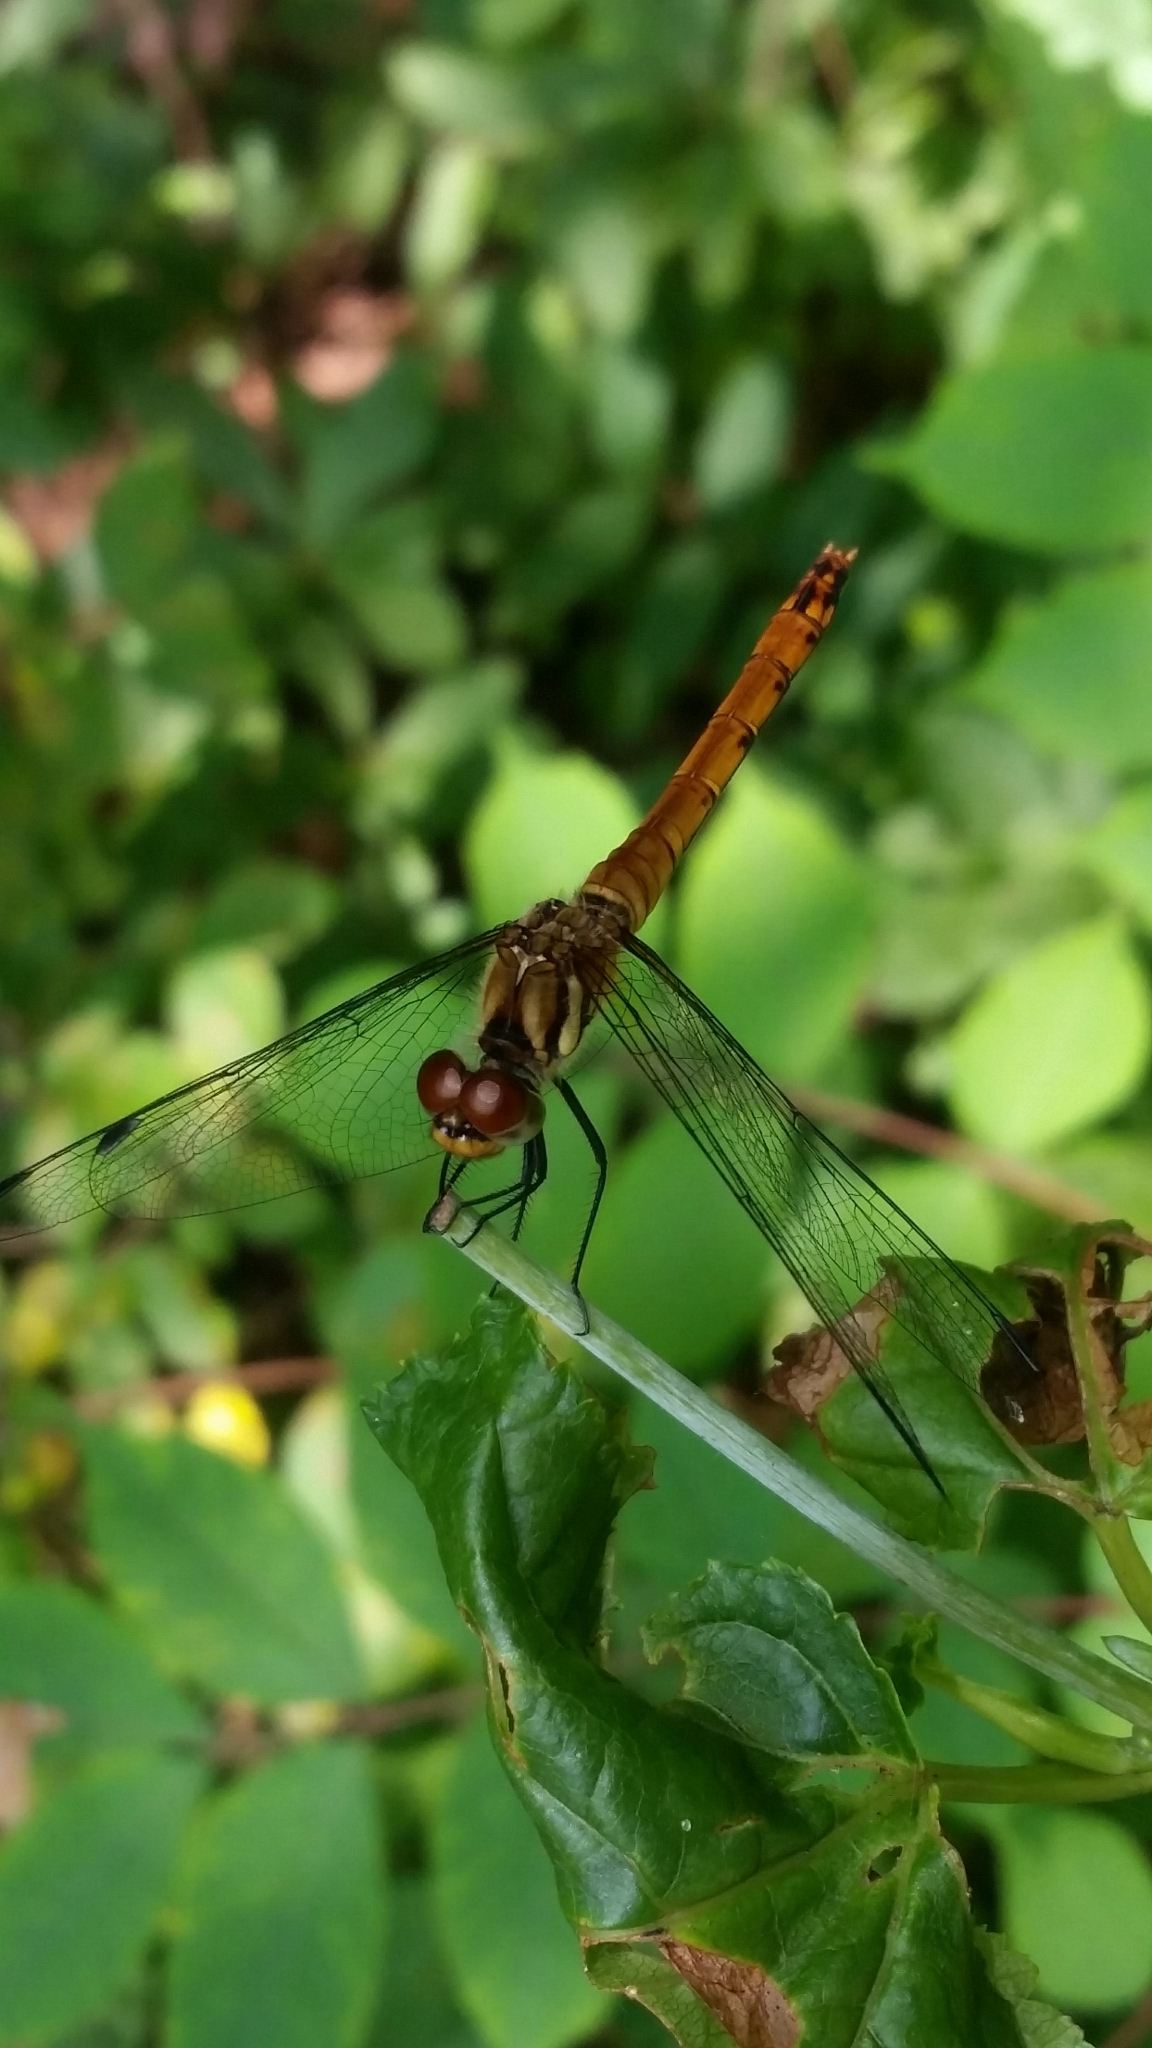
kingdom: Animalia
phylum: Arthropoda
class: Insecta
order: Odonata
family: Libellulidae
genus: Sympetrum
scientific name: Sympetrum darwinianum
